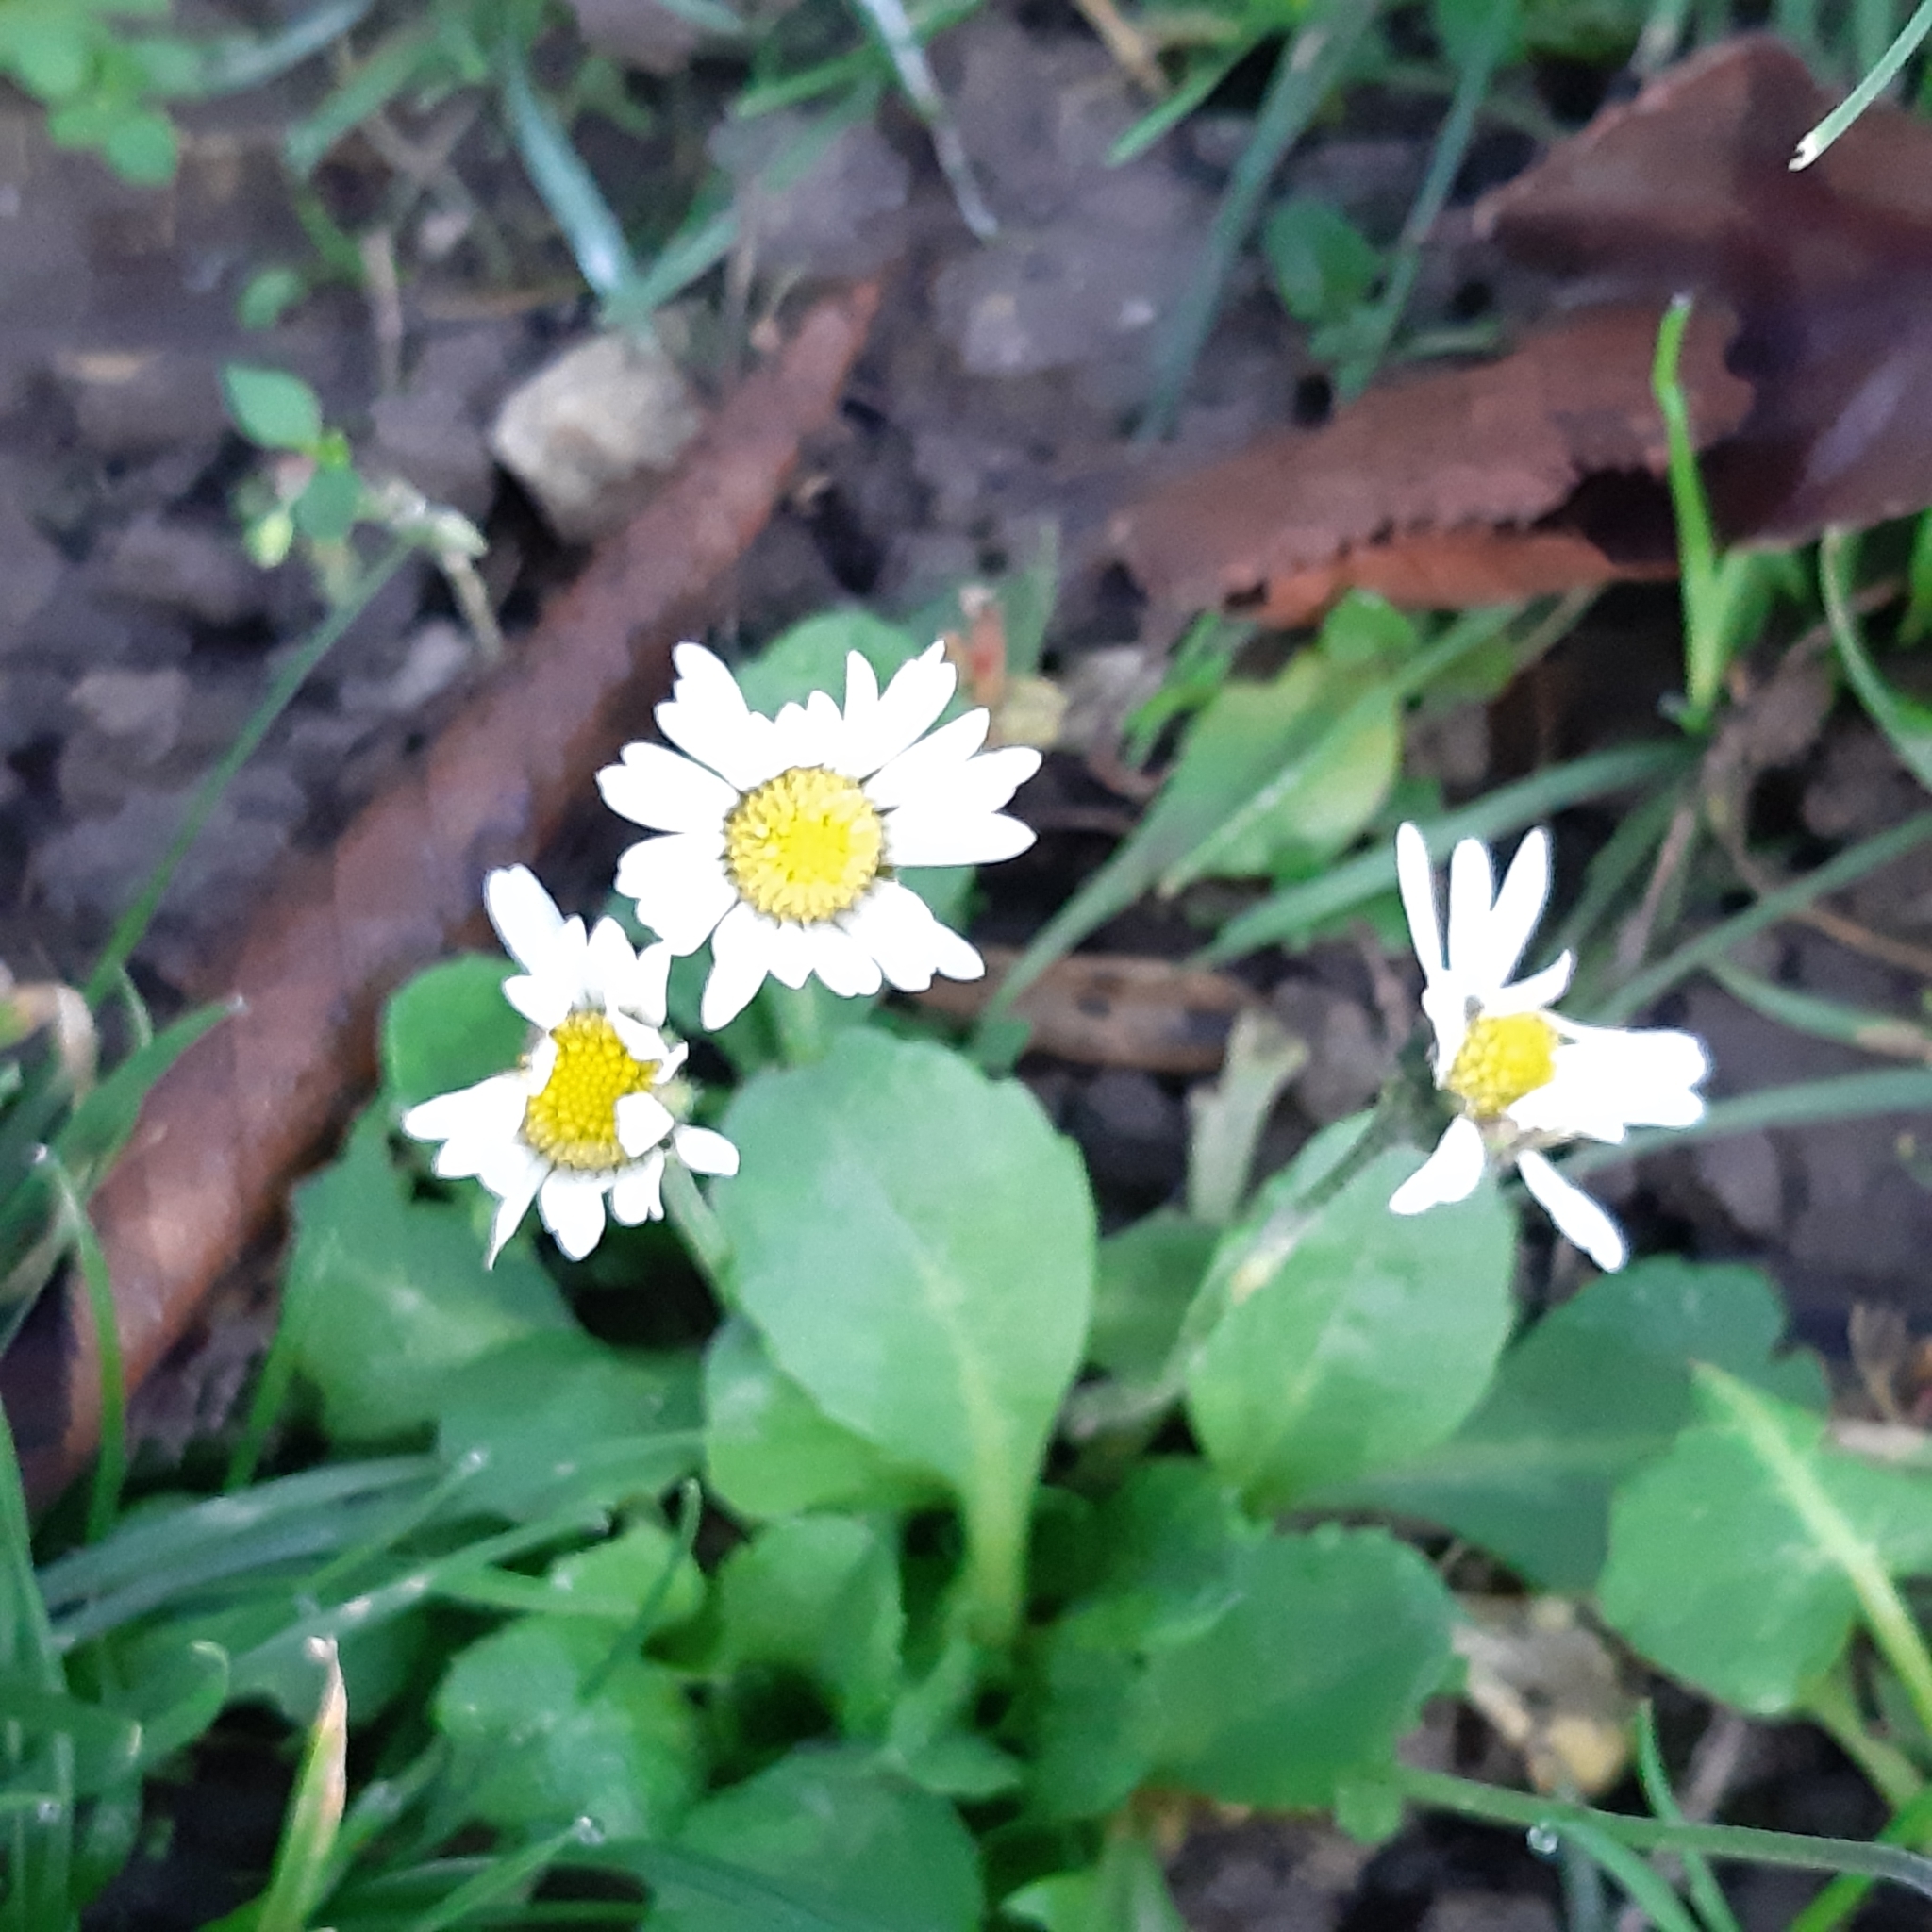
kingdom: Plantae
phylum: Tracheophyta
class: Magnoliopsida
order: Asterales
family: Asteraceae
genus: Bellis
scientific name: Bellis perennis
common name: Lawndaisy
